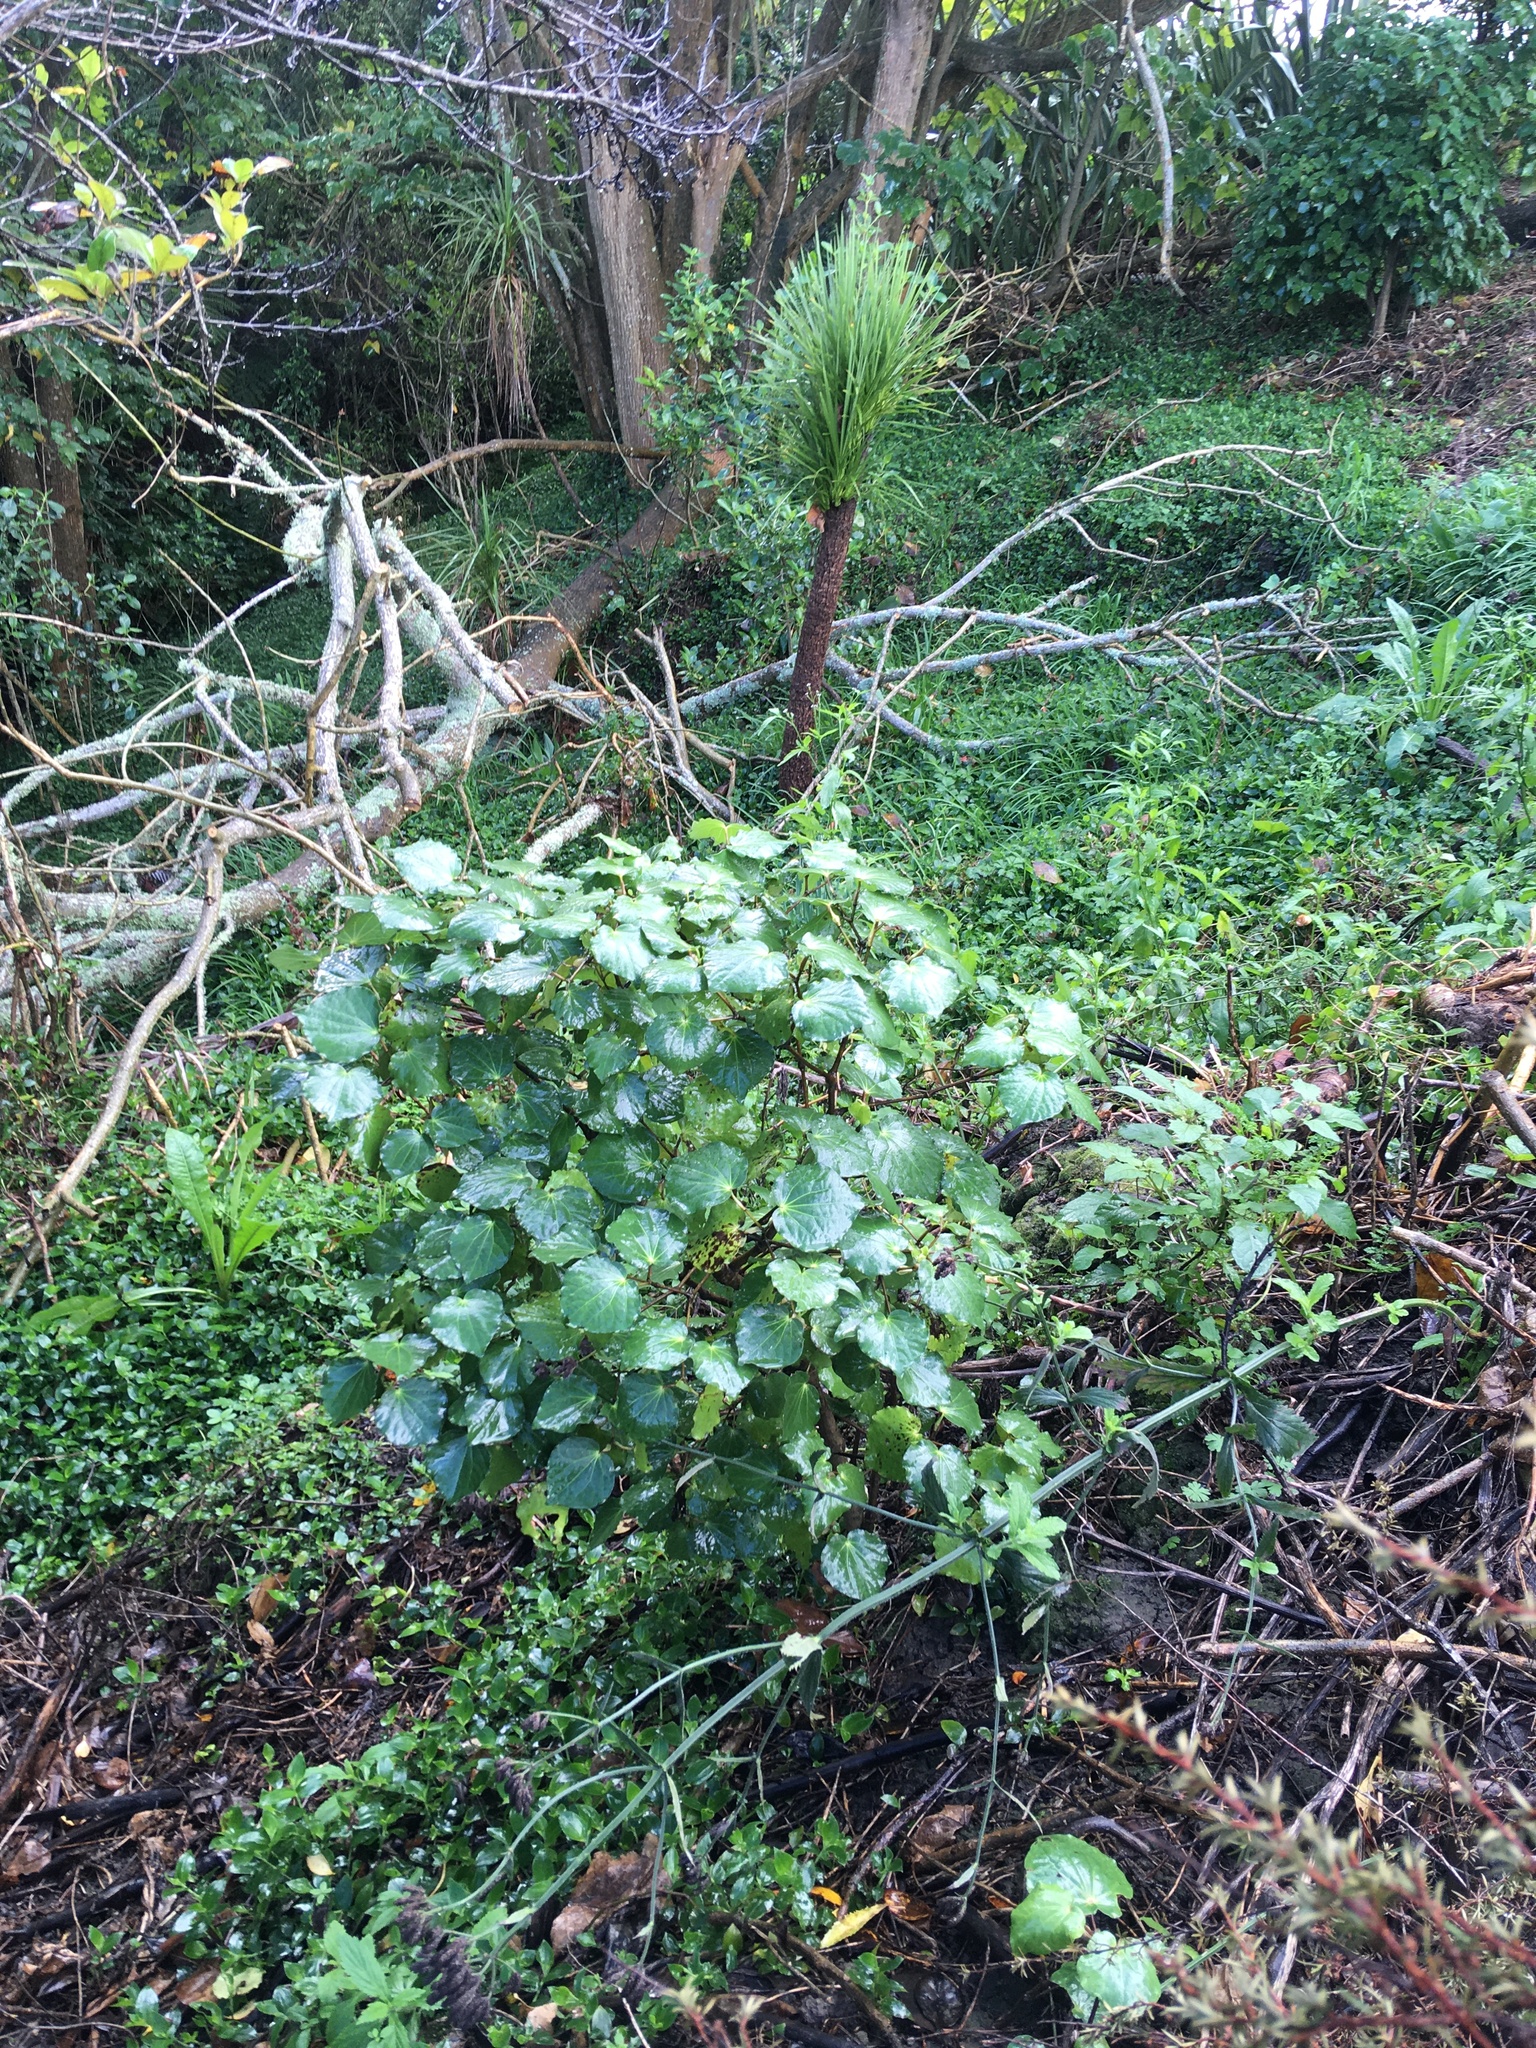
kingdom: Plantae
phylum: Tracheophyta
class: Magnoliopsida
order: Piperales
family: Piperaceae
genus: Macropiper
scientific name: Macropiper excelsum
